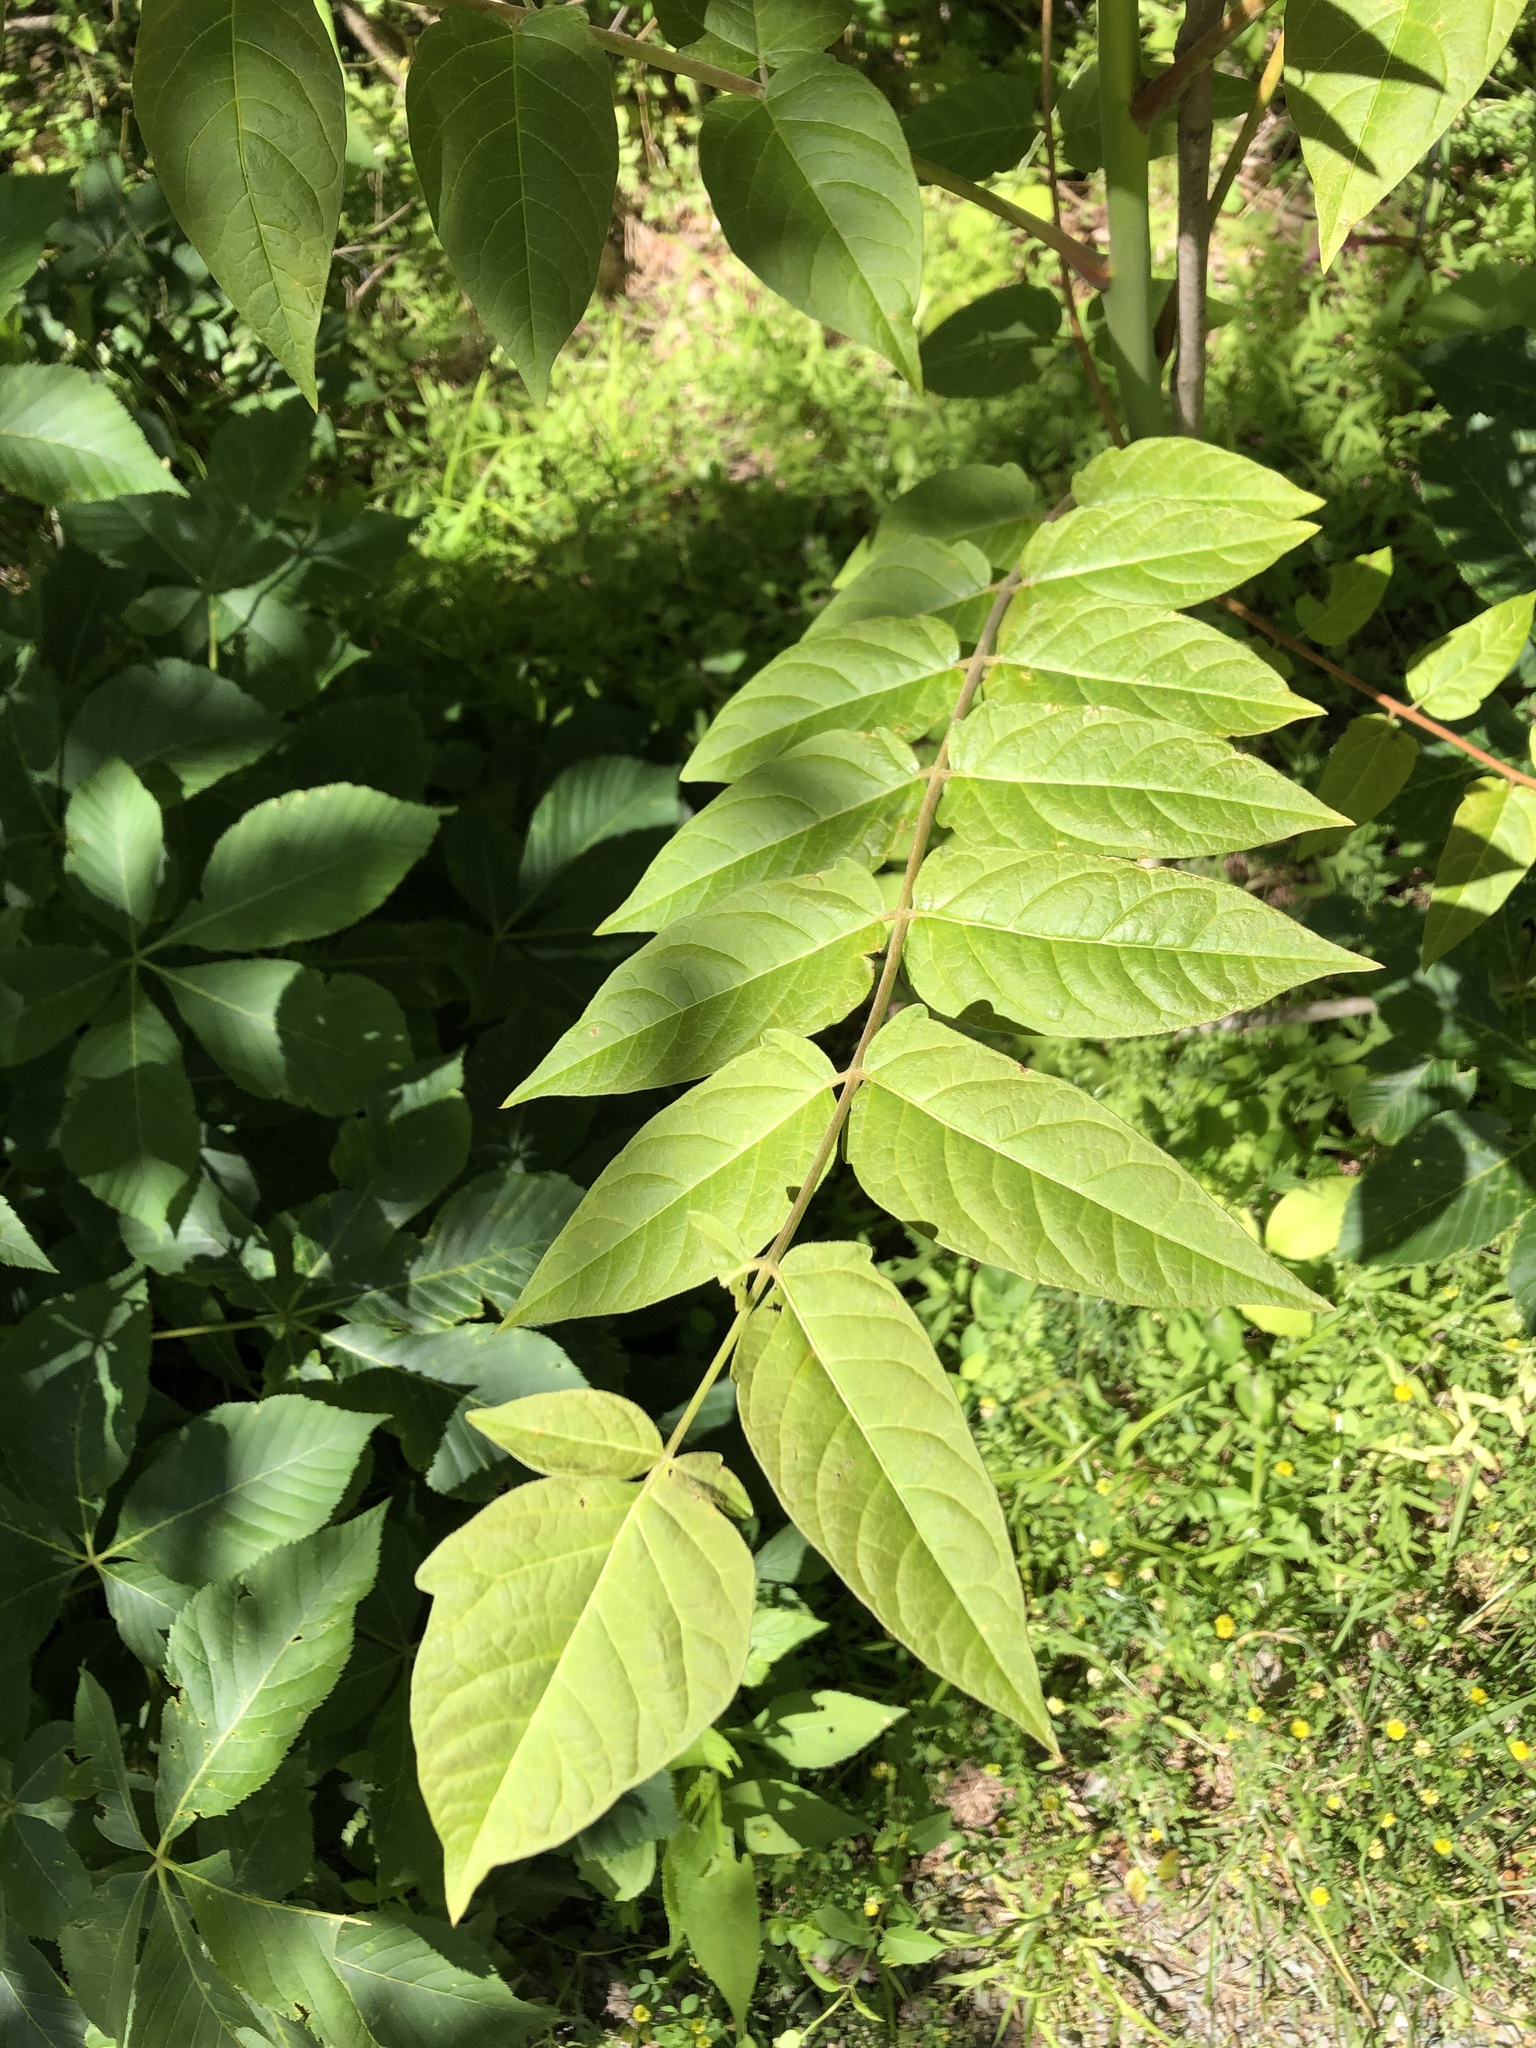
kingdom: Plantae
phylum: Tracheophyta
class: Magnoliopsida
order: Sapindales
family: Simaroubaceae
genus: Ailanthus
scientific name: Ailanthus altissima
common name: Tree-of-heaven
